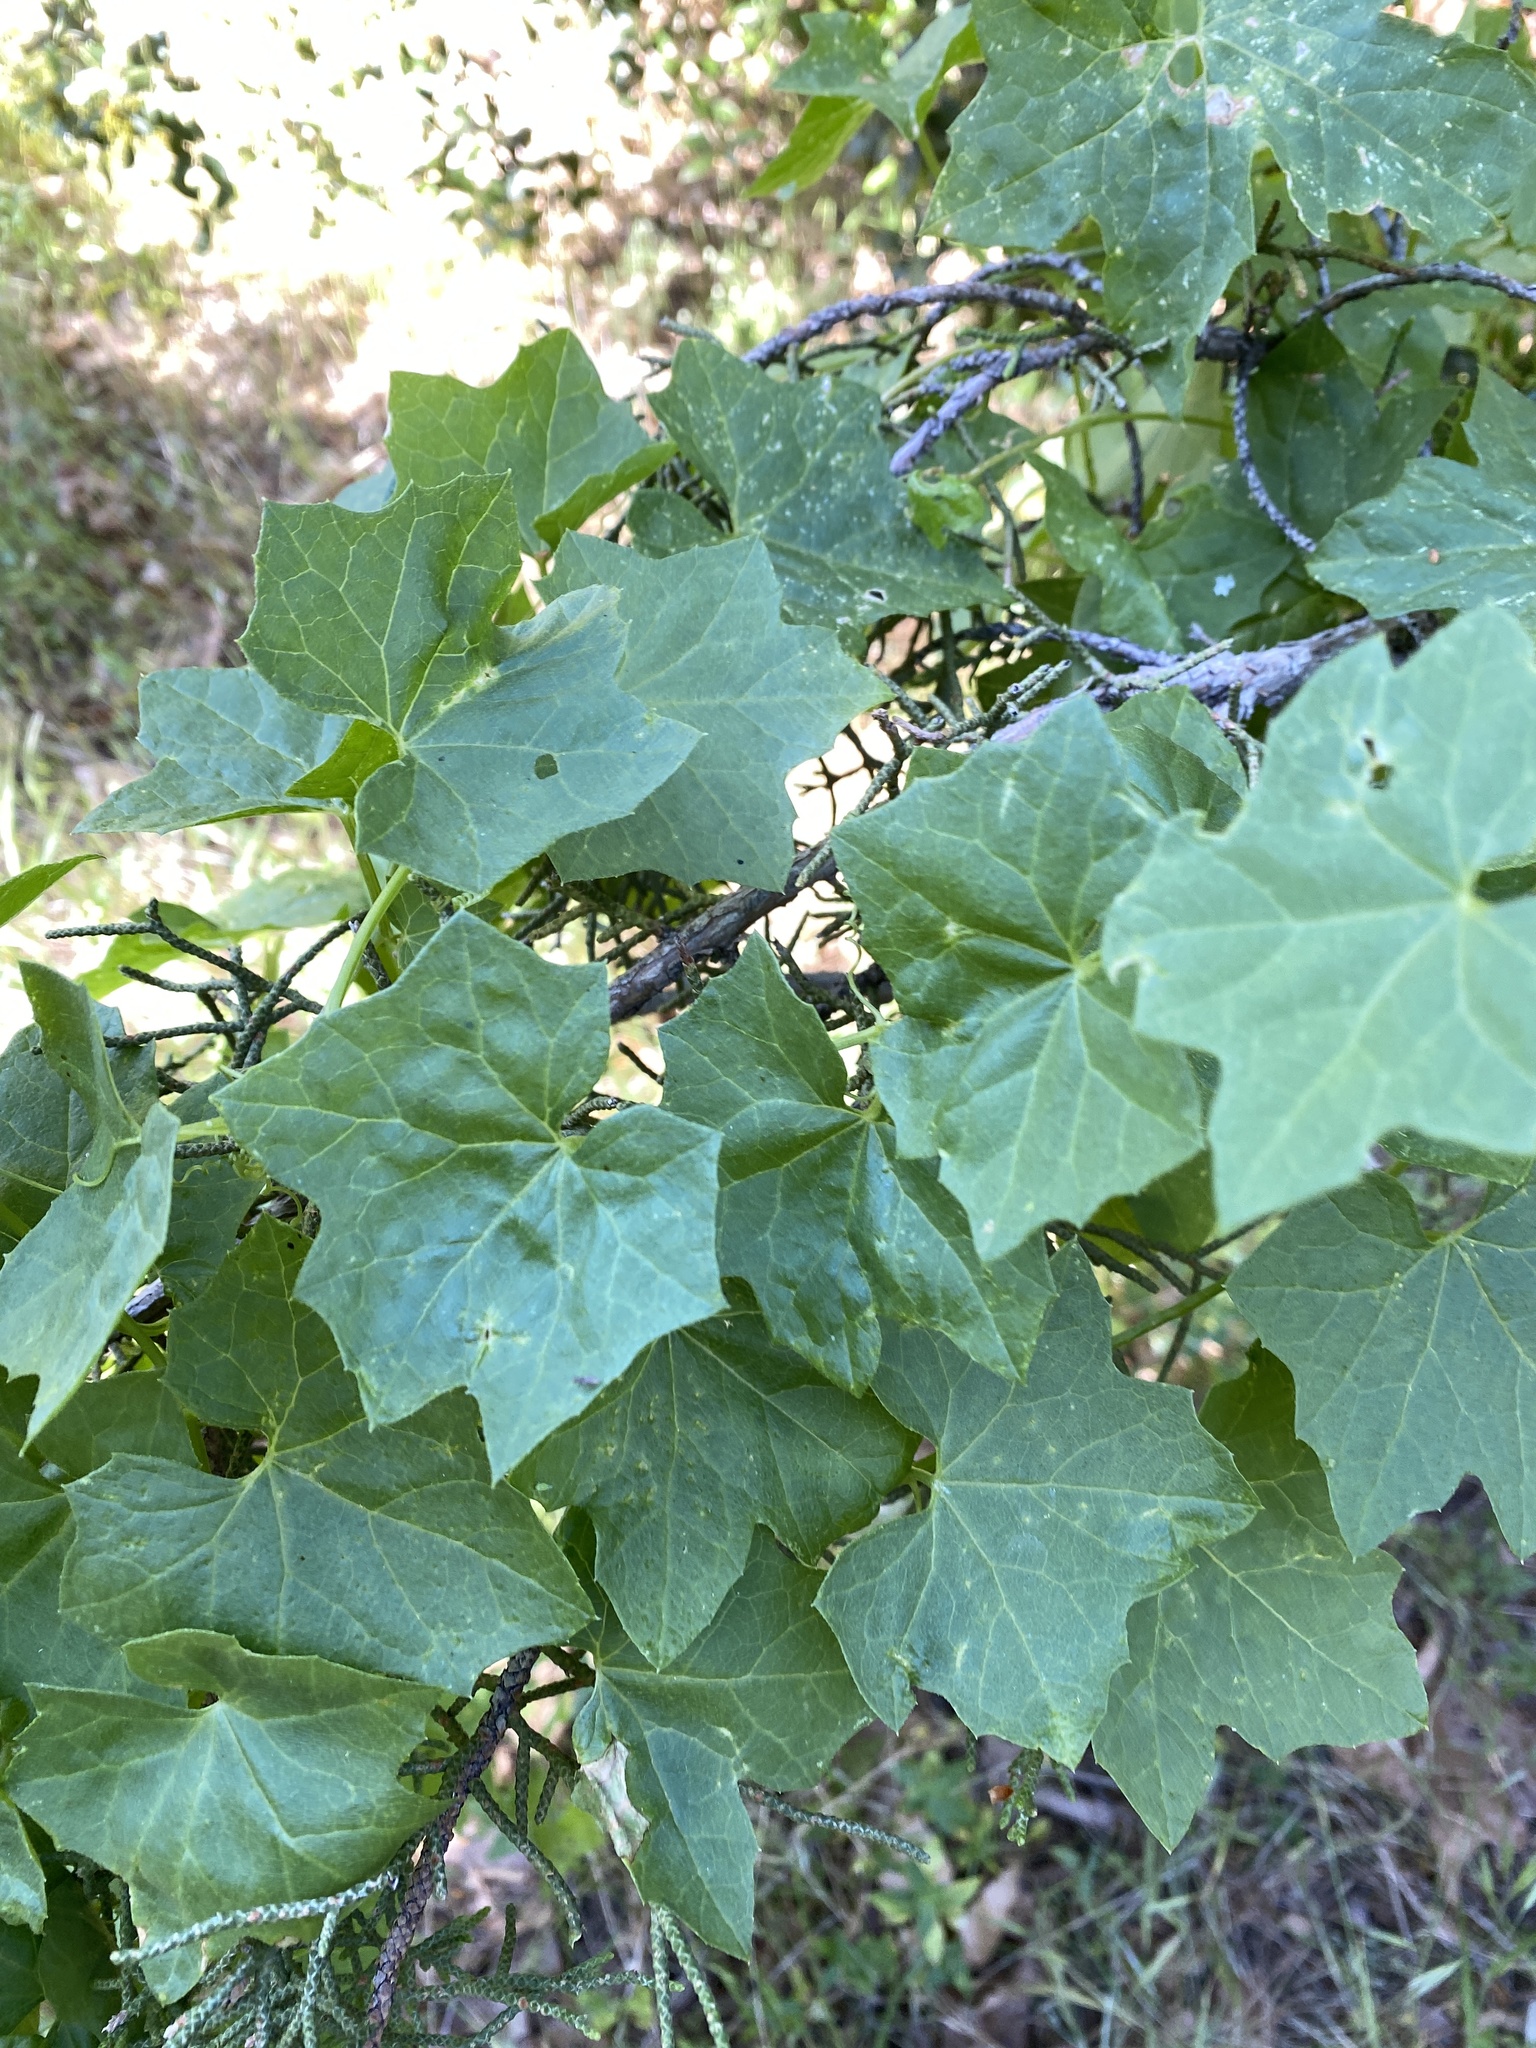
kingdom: Plantae
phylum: Tracheophyta
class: Magnoliopsida
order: Cucurbitales
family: Cucurbitaceae
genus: Marah
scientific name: Marah fabacea
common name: California manroot
